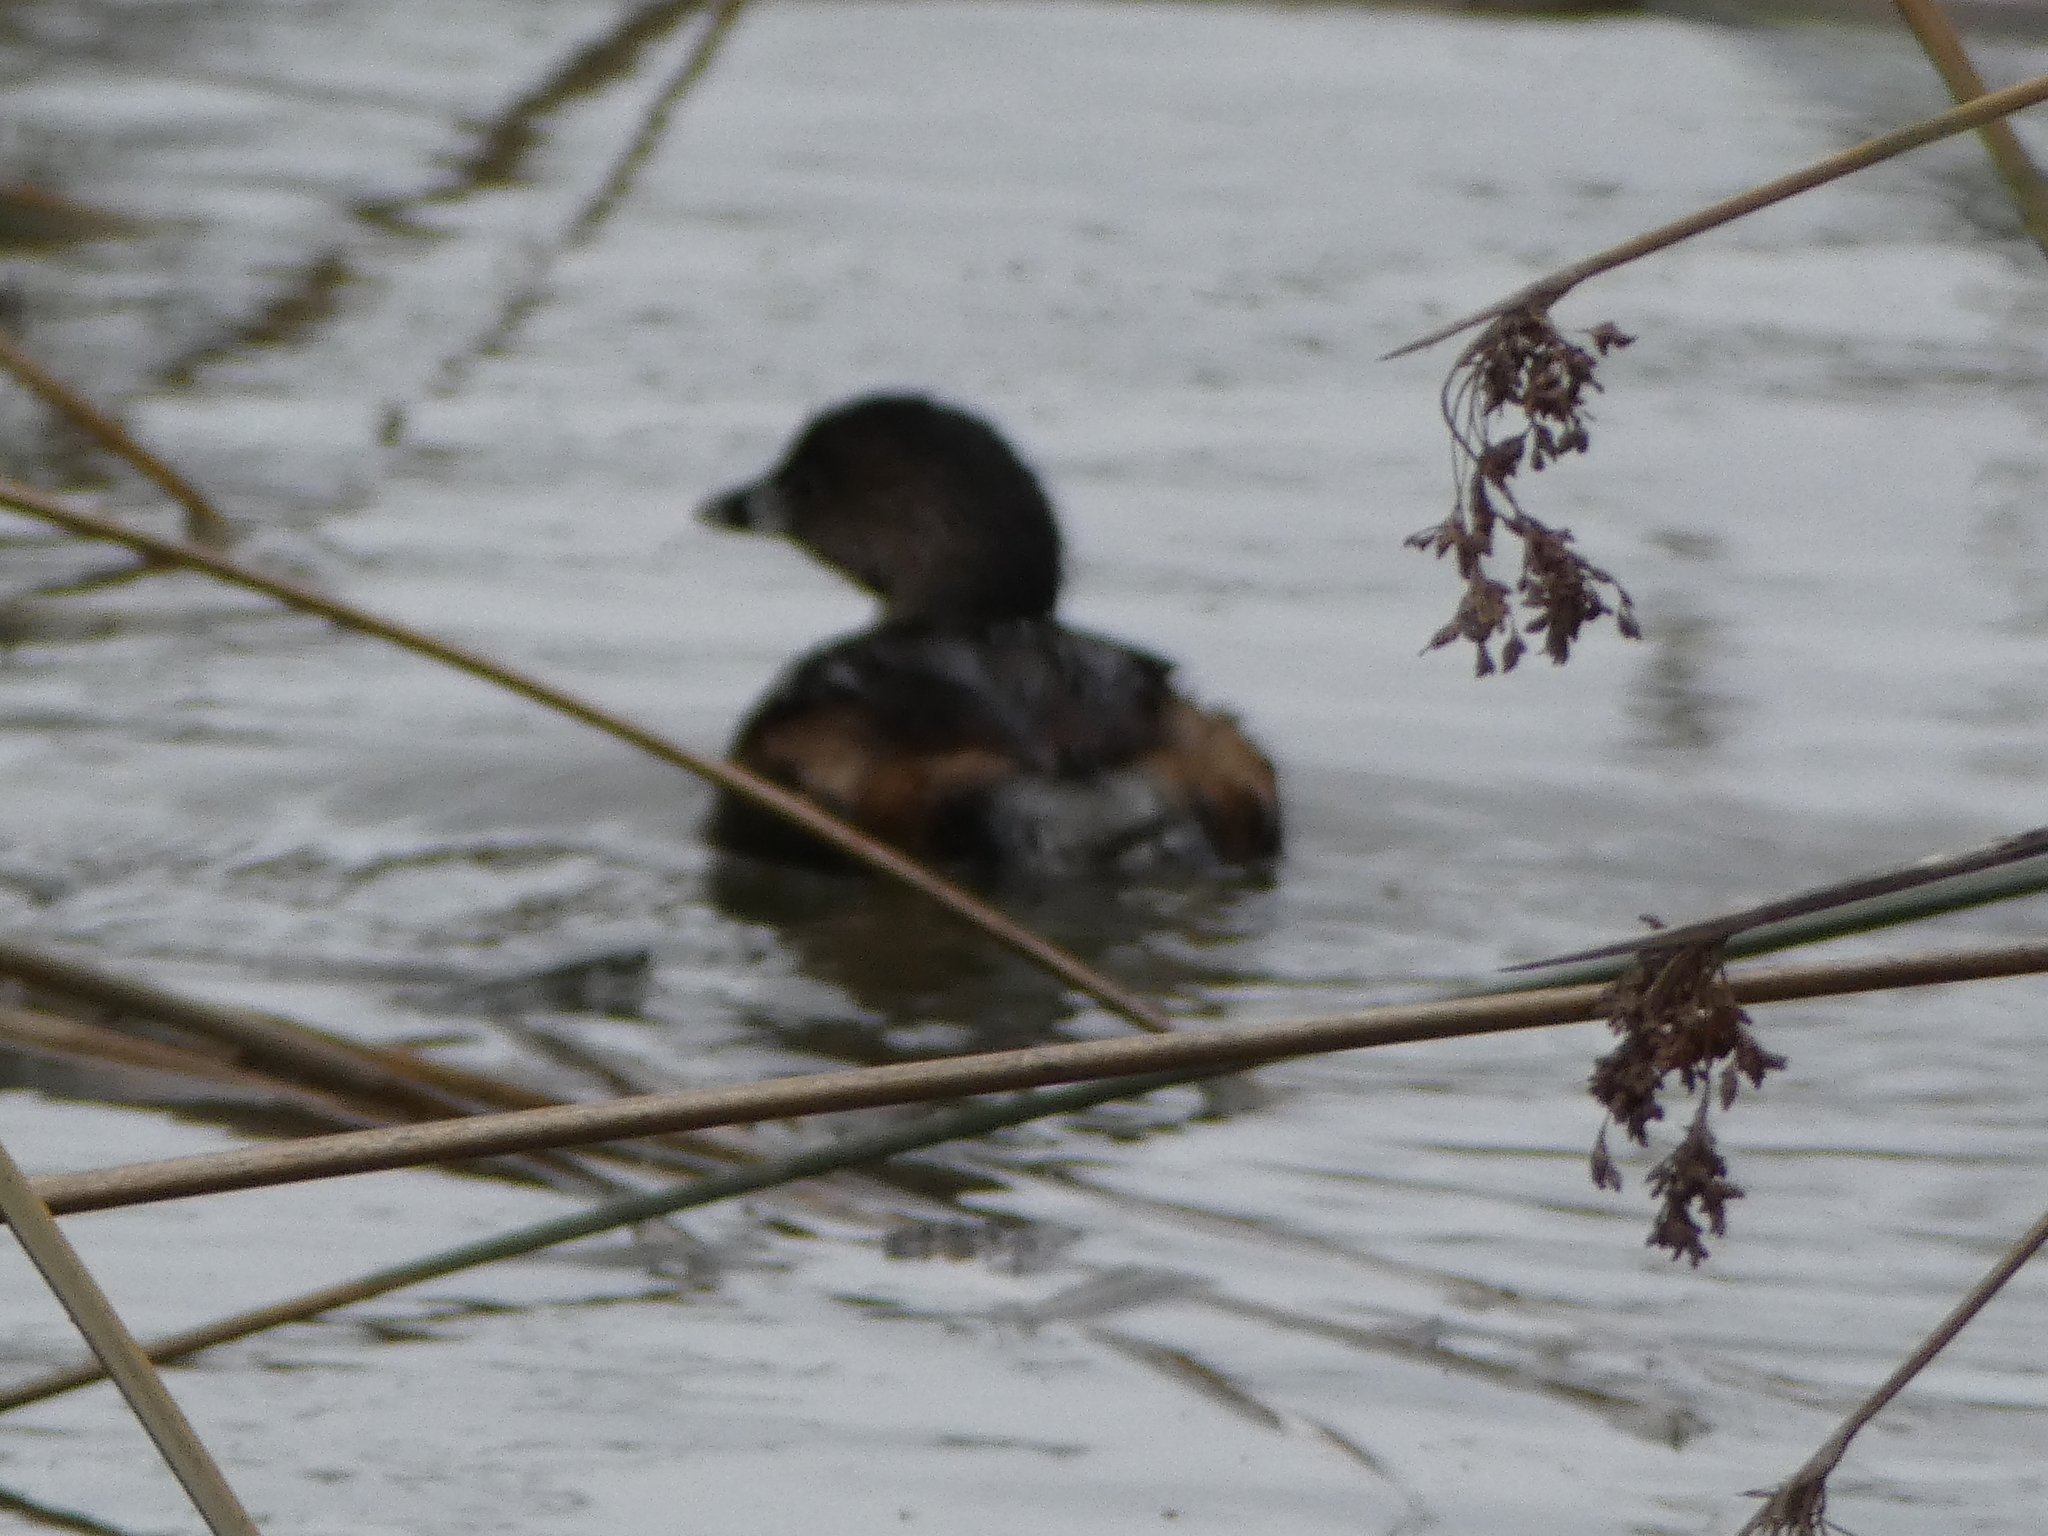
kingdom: Animalia
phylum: Chordata
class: Aves
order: Podicipediformes
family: Podicipedidae
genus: Podilymbus
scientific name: Podilymbus podiceps
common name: Pied-billed grebe
